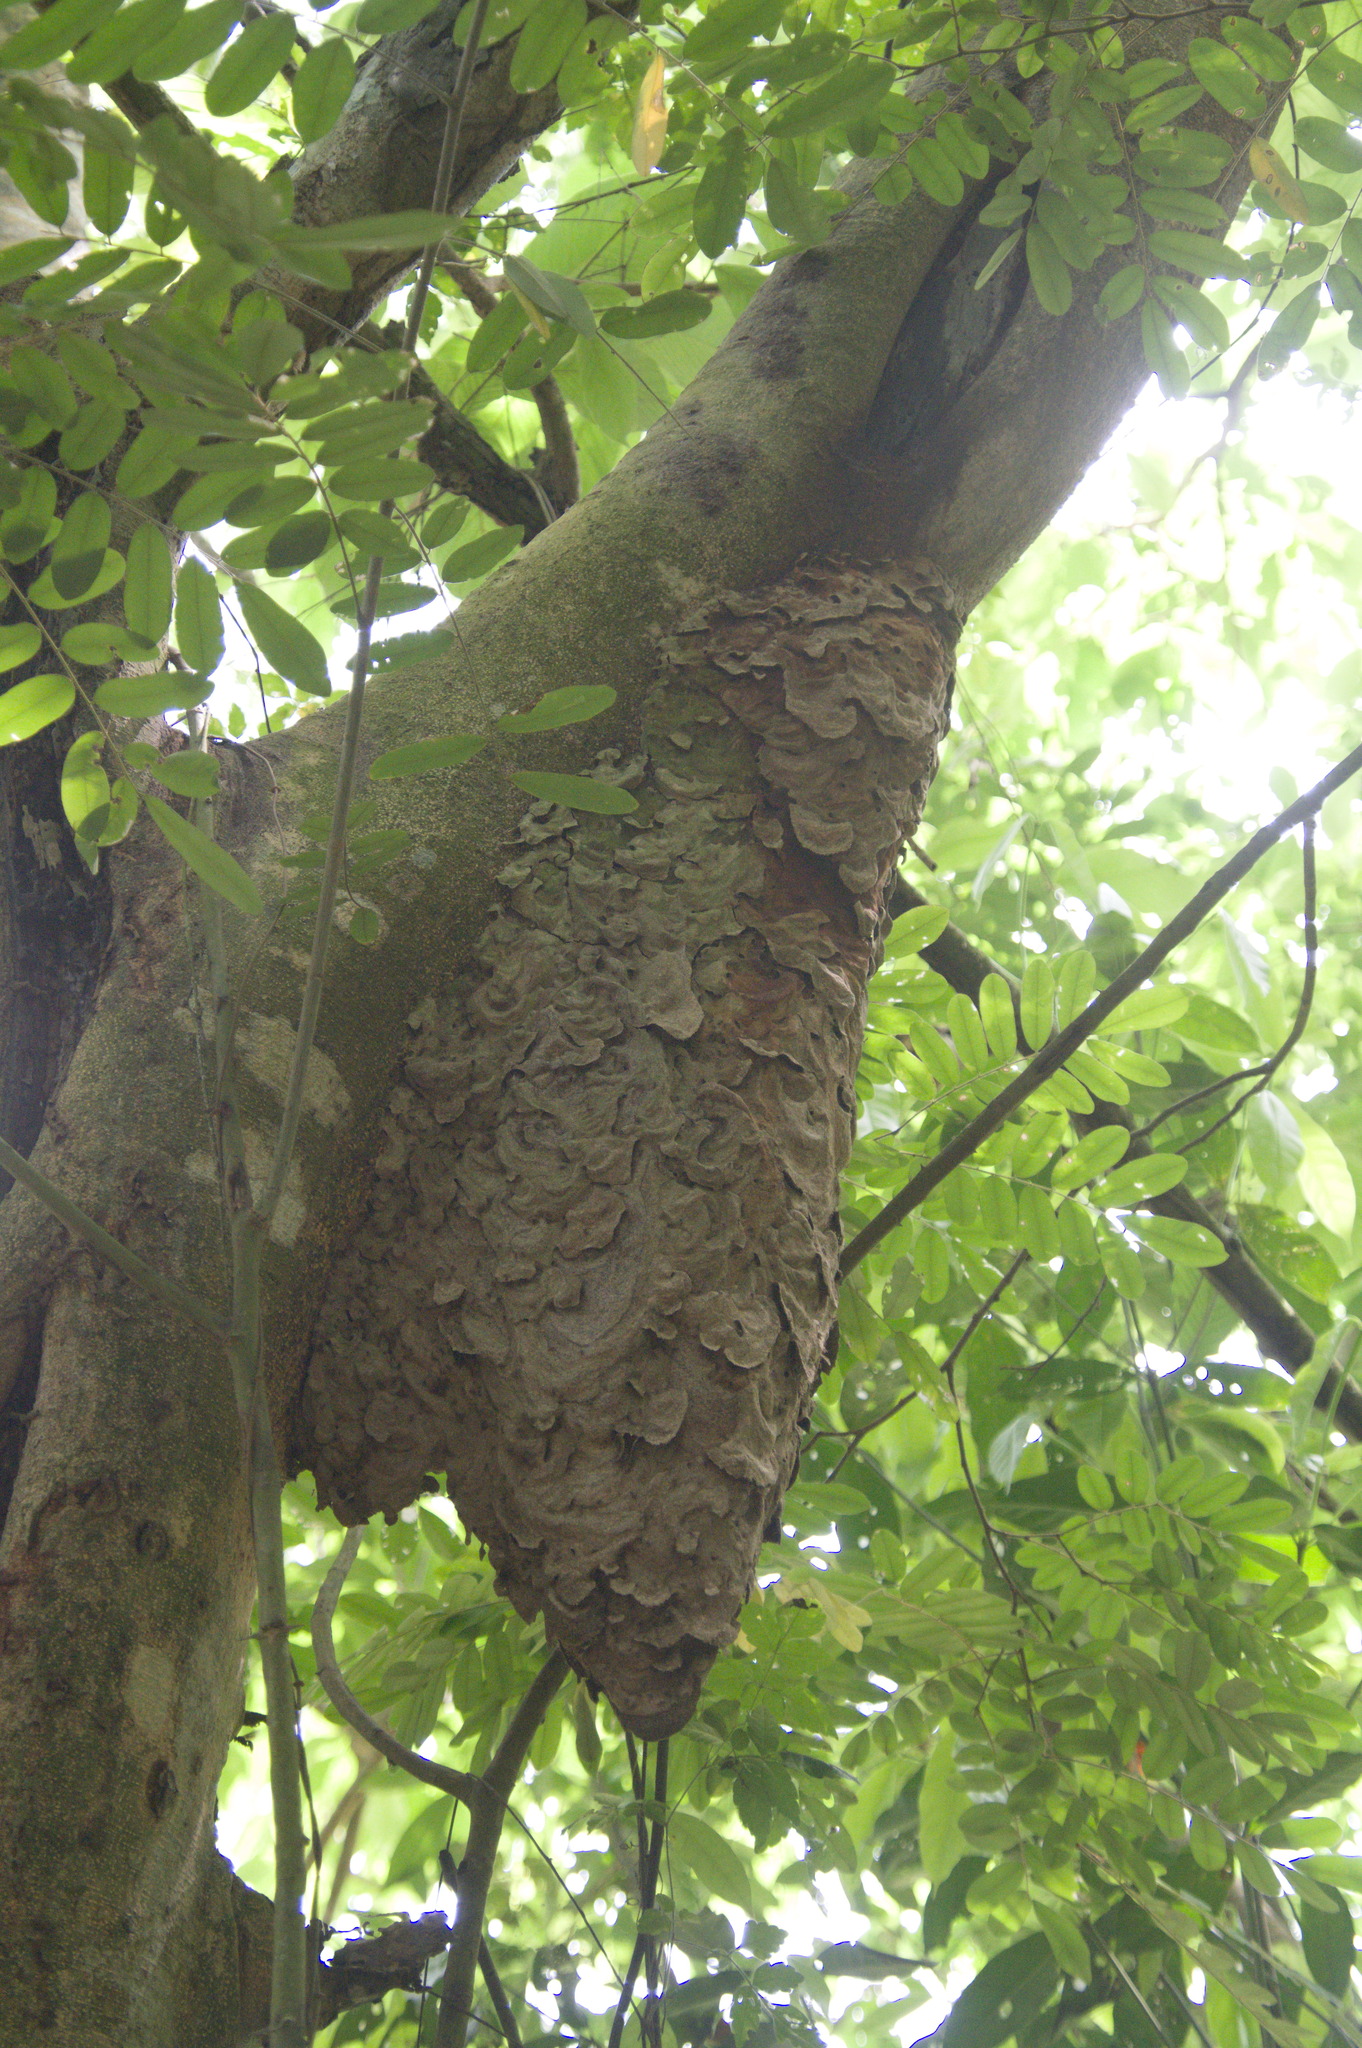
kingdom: Animalia
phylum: Arthropoda
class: Insecta
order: Hymenoptera
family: Formicidae
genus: Azteca
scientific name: Azteca
